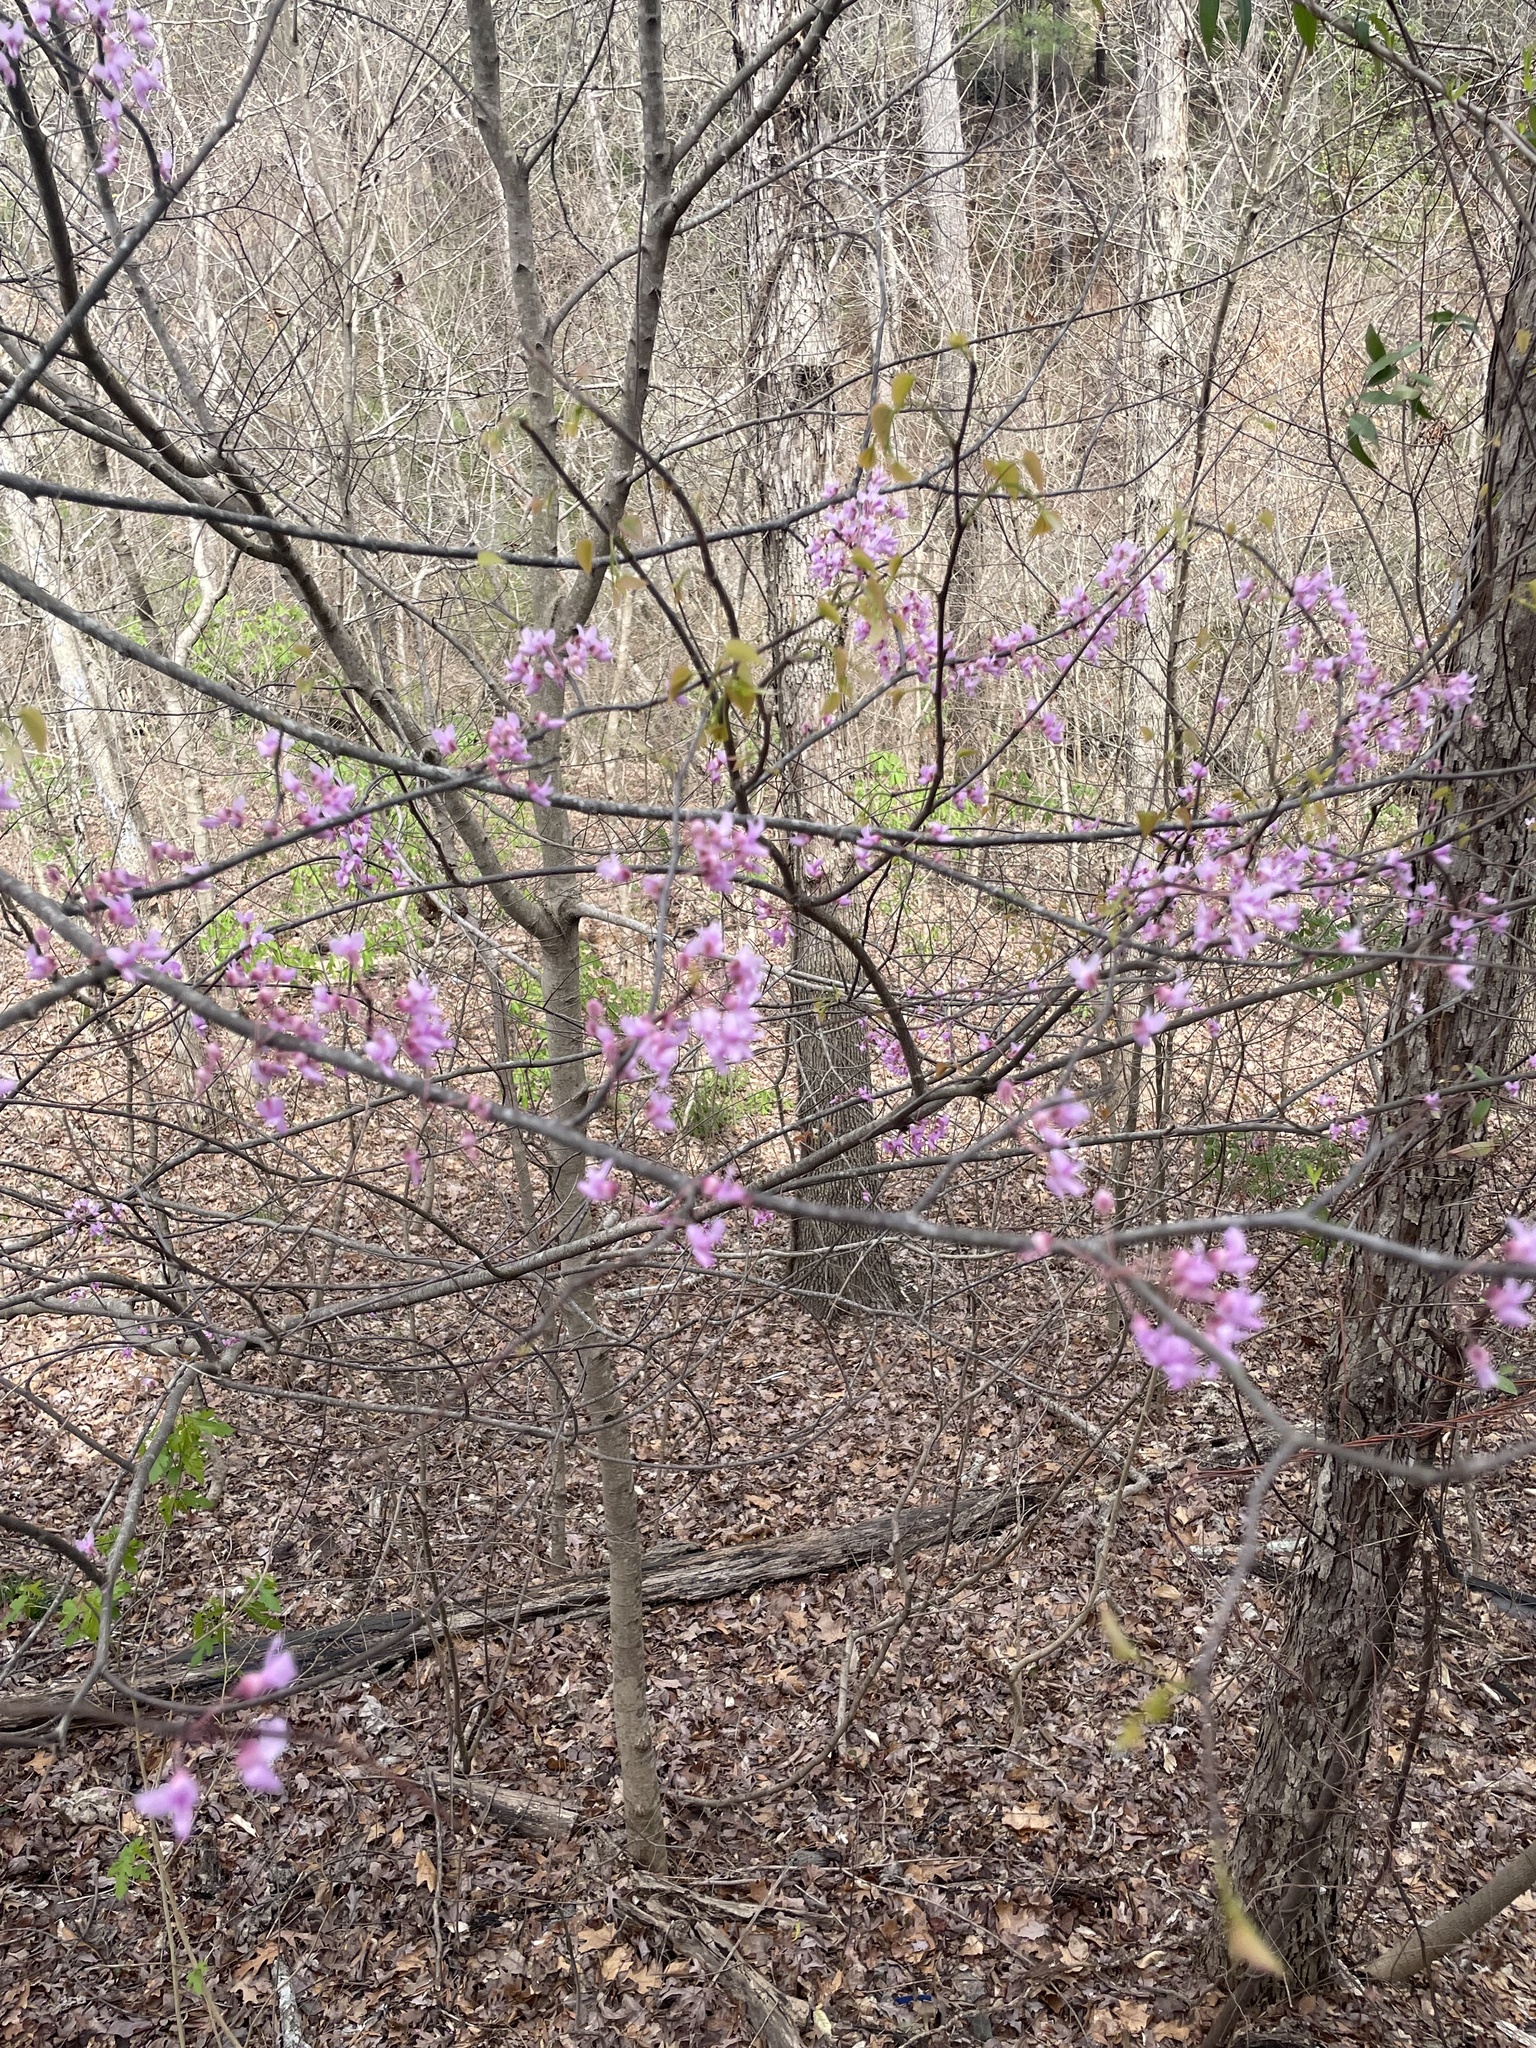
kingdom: Plantae
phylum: Tracheophyta
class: Magnoliopsida
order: Fabales
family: Fabaceae
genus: Cercis
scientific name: Cercis canadensis
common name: Eastern redbud
